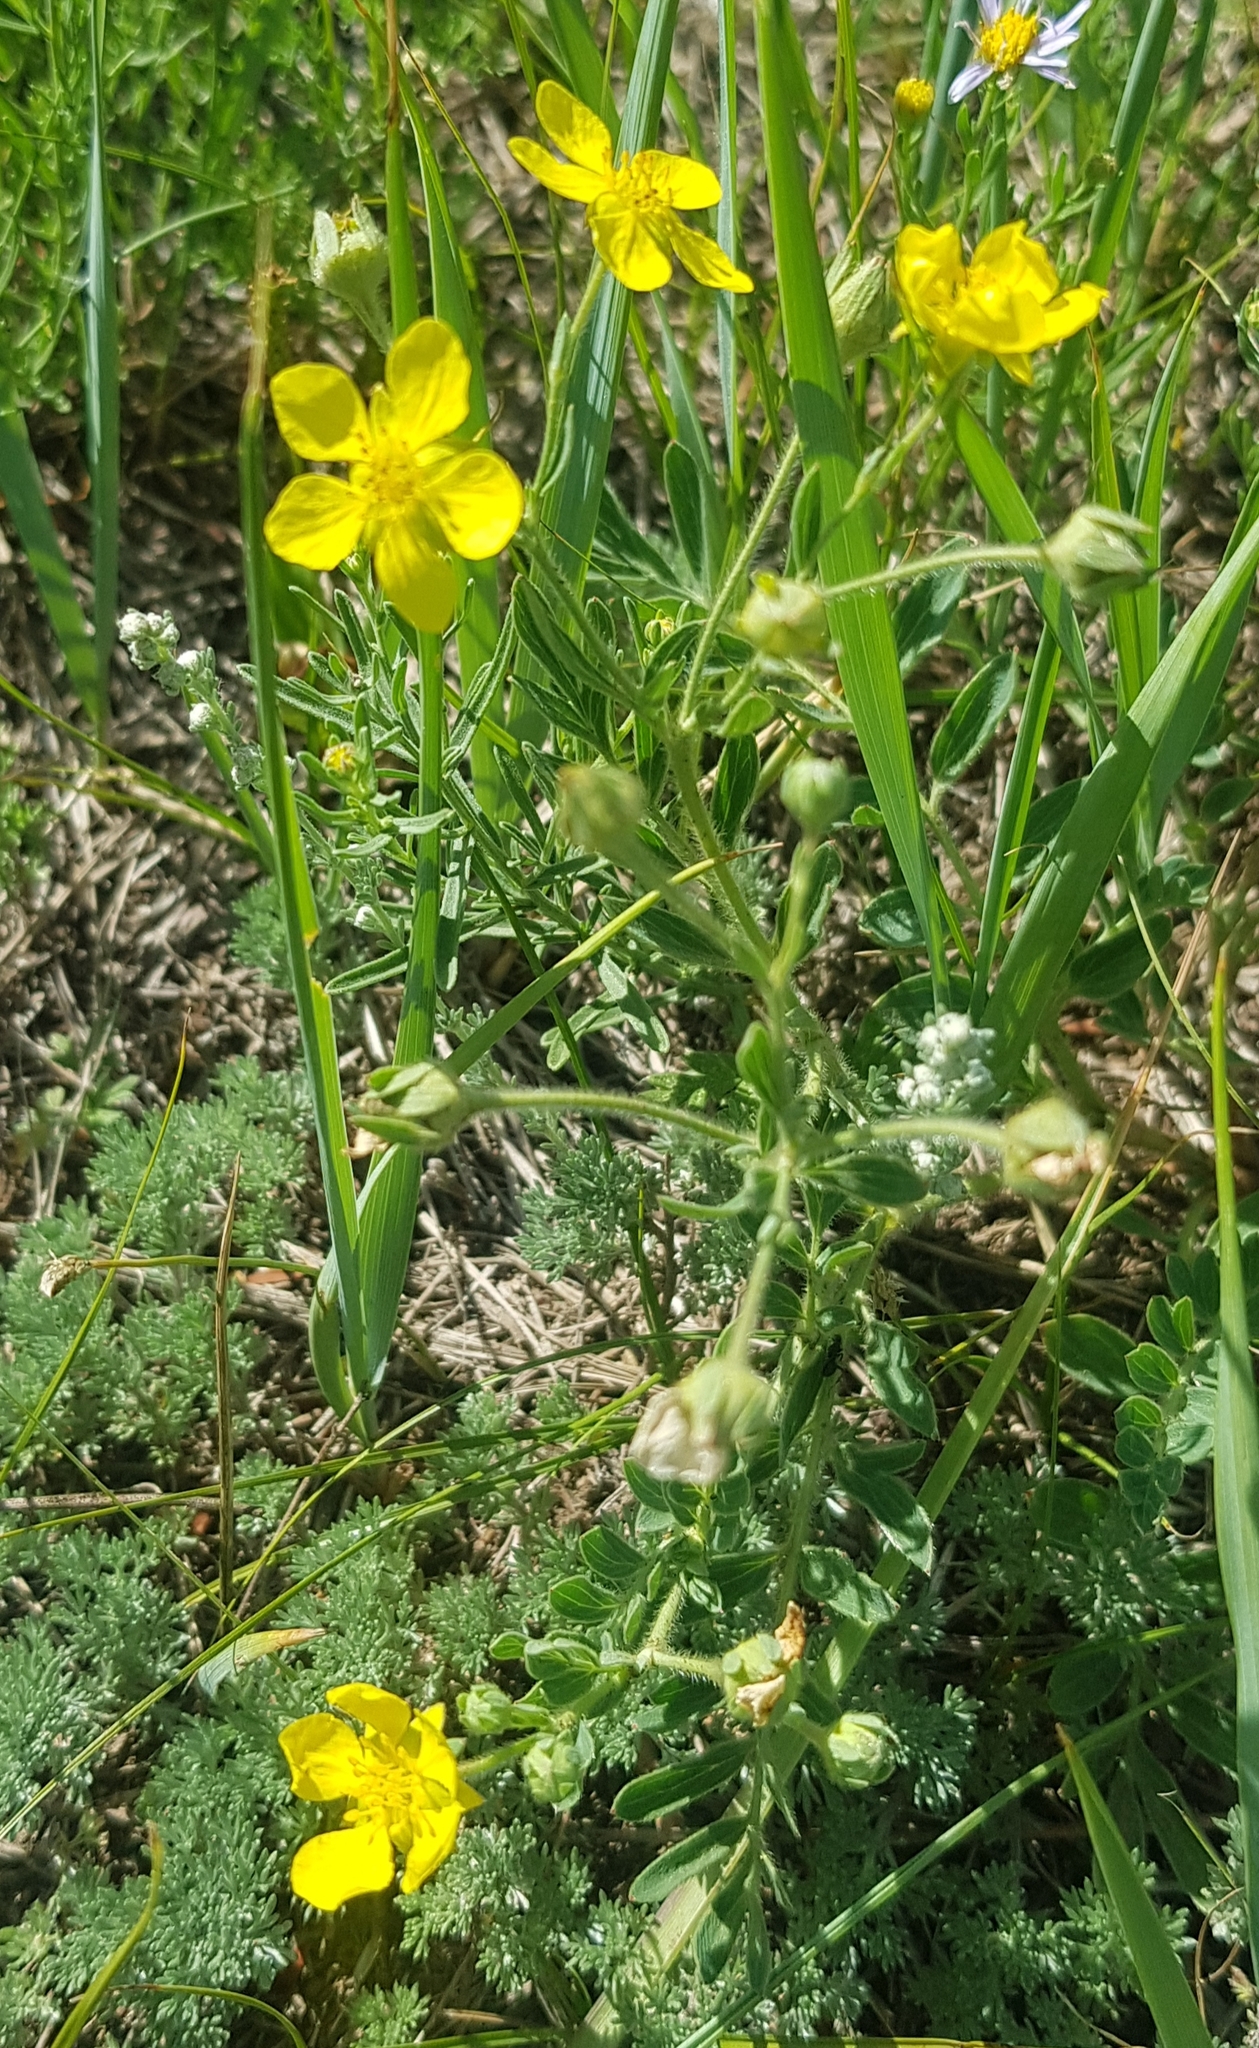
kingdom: Plantae
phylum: Tracheophyta
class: Magnoliopsida
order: Rosales
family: Rosaceae
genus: Sibbaldianthe
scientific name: Sibbaldianthe bifurca
